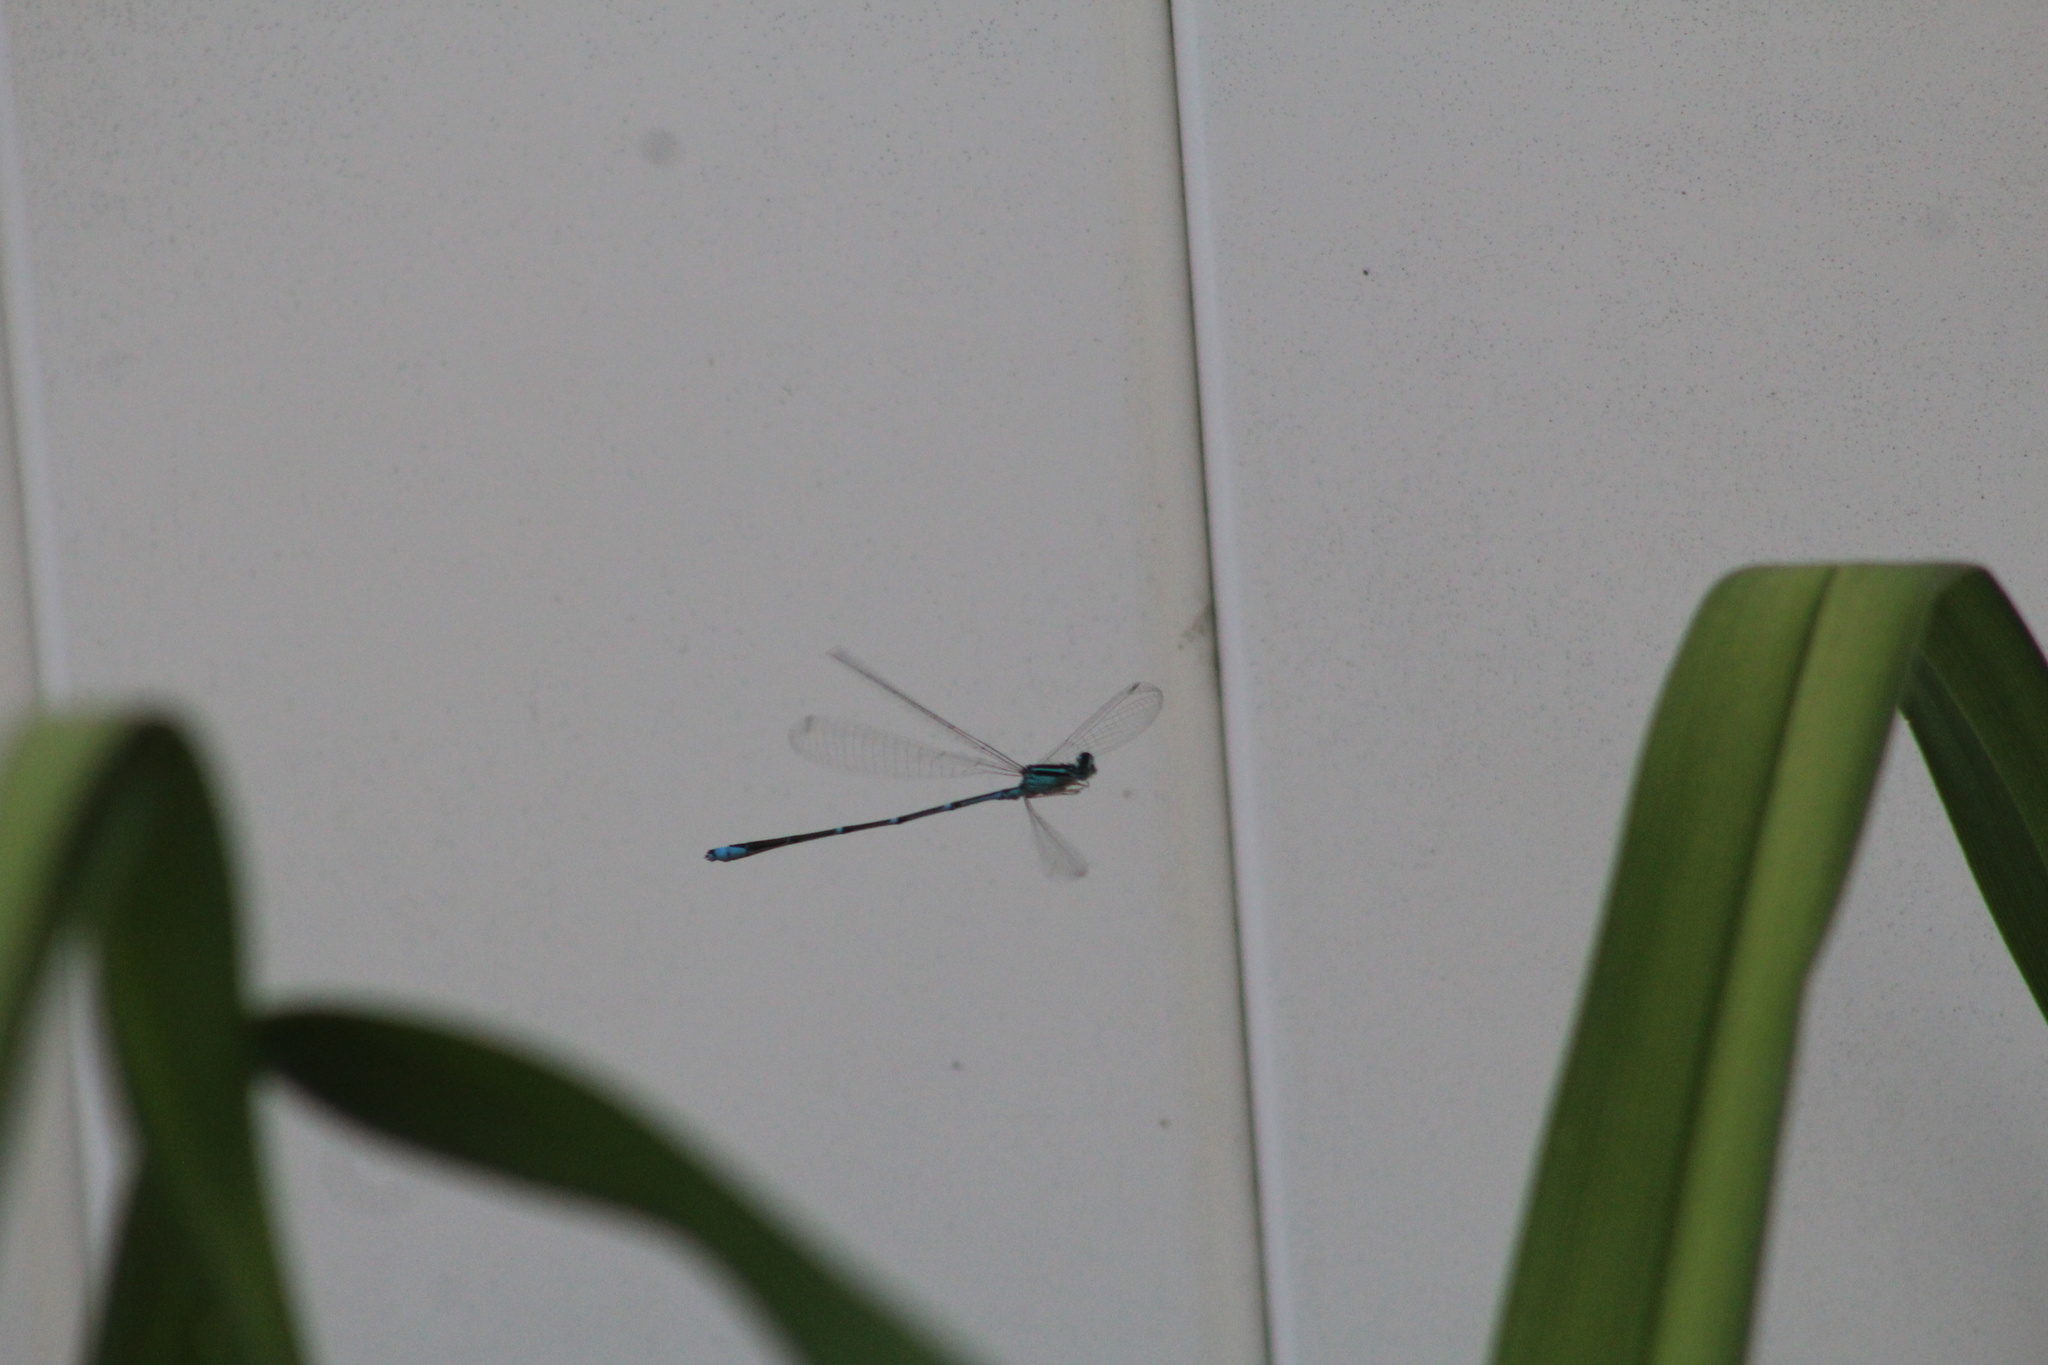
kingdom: Animalia
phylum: Arthropoda
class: Insecta
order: Odonata
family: Coenagrionidae
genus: Enallagma
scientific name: Enallagma exsulans
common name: Stream bluet
